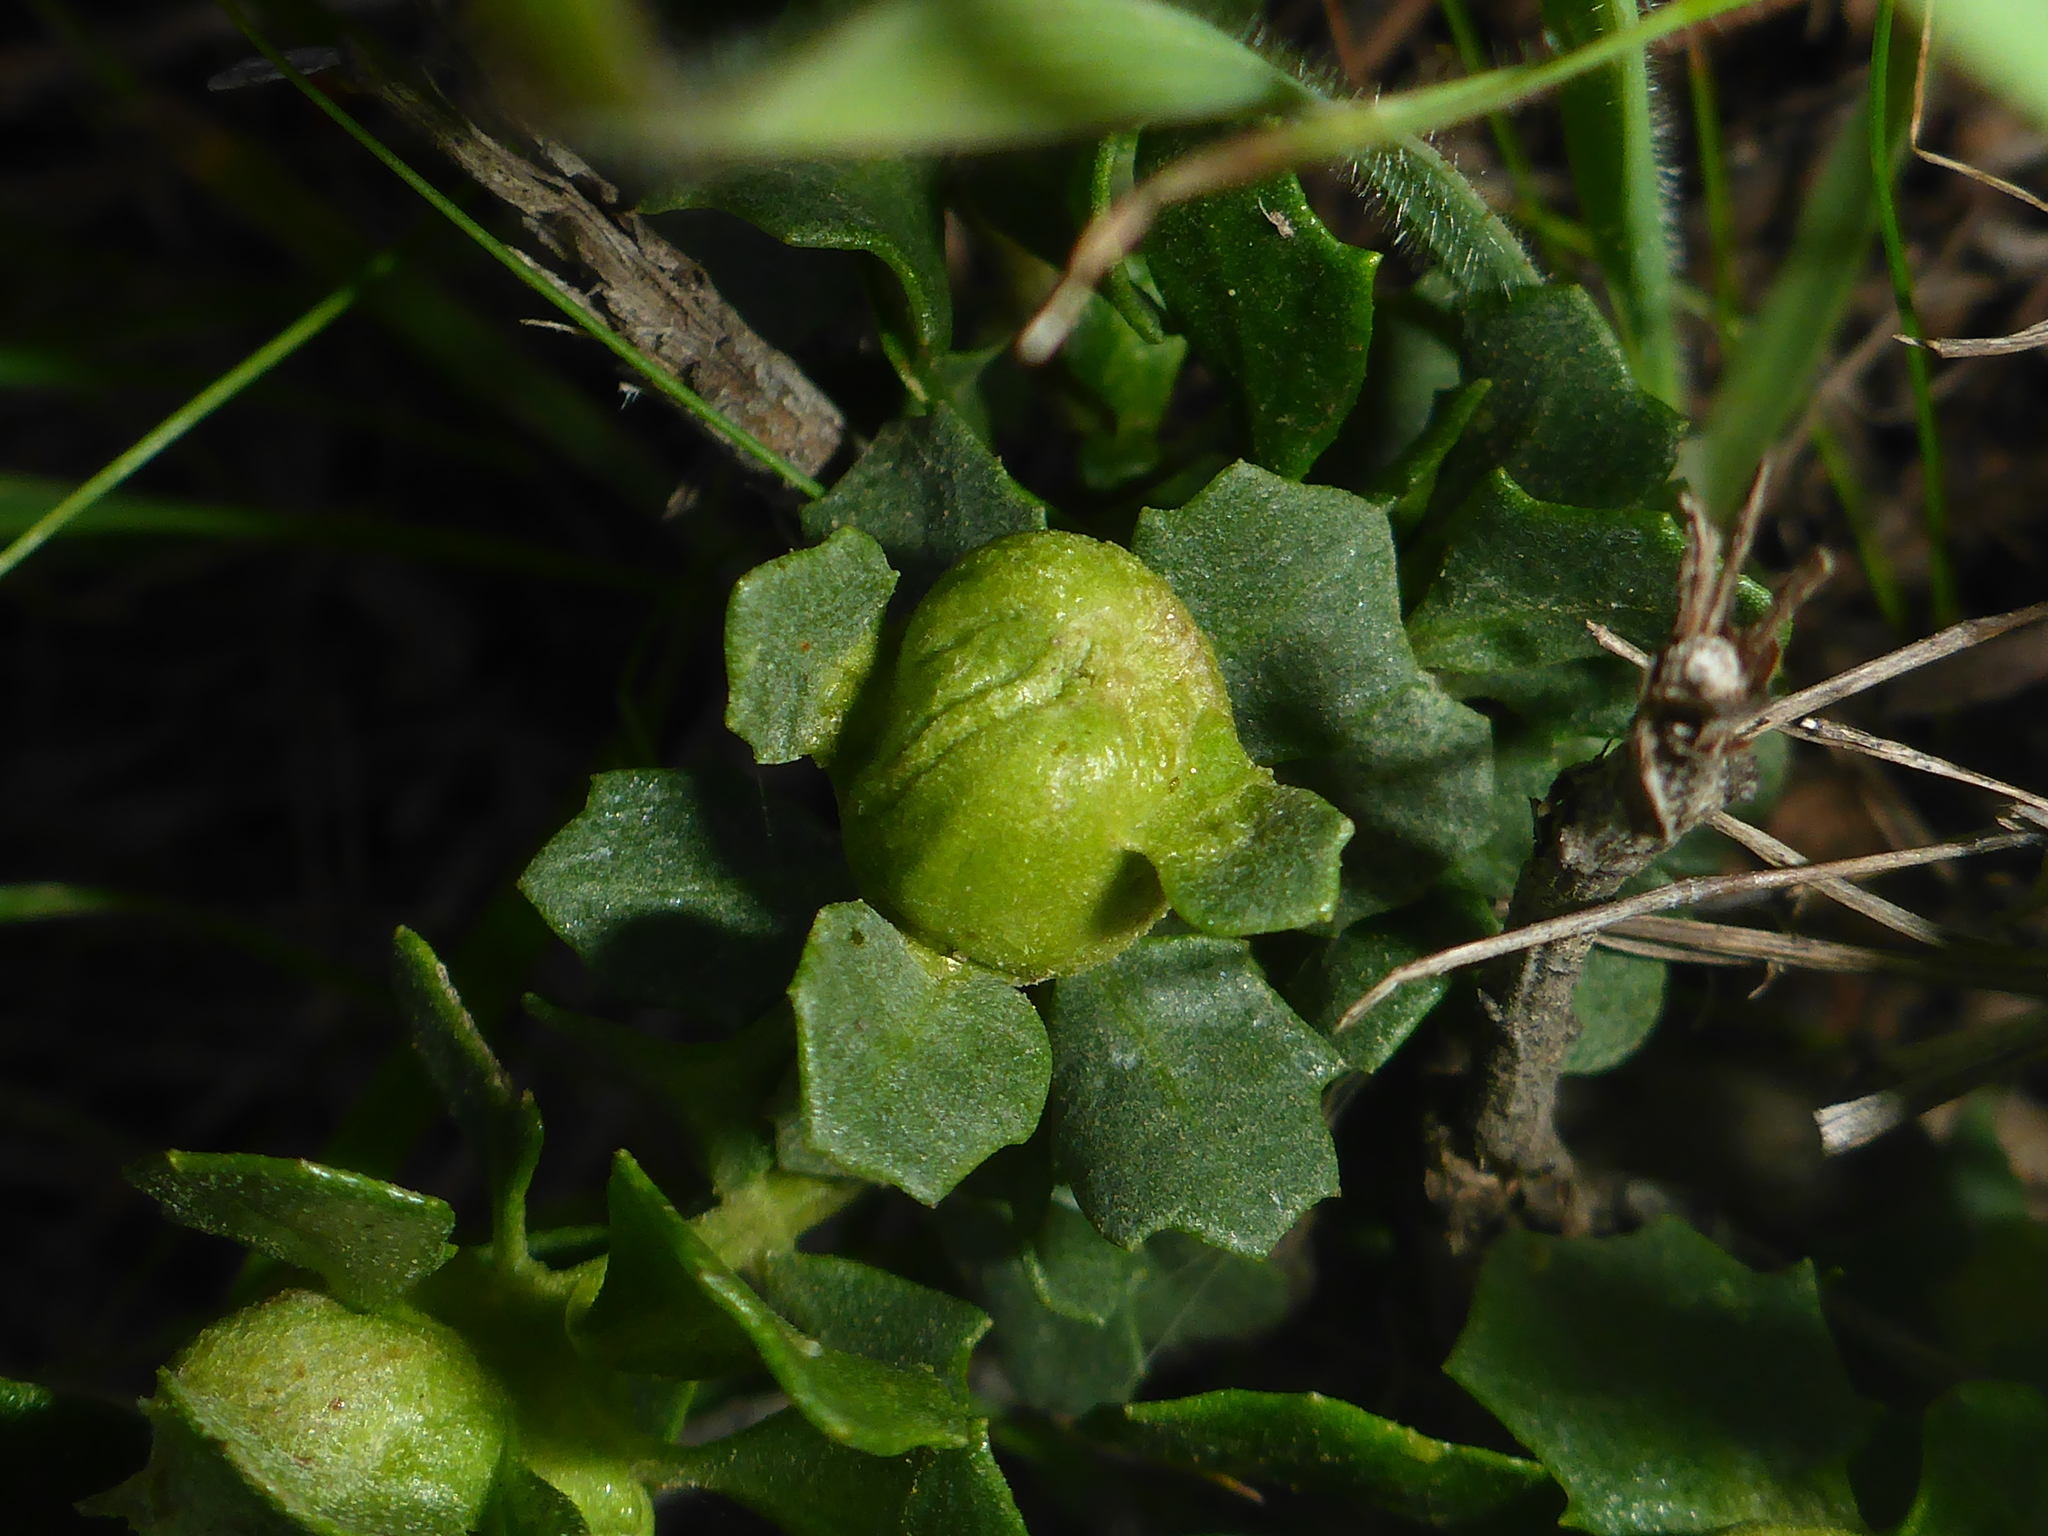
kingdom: Animalia
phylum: Arthropoda
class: Insecta
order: Diptera
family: Cecidomyiidae
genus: Rhopalomyia
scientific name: Rhopalomyia californica
